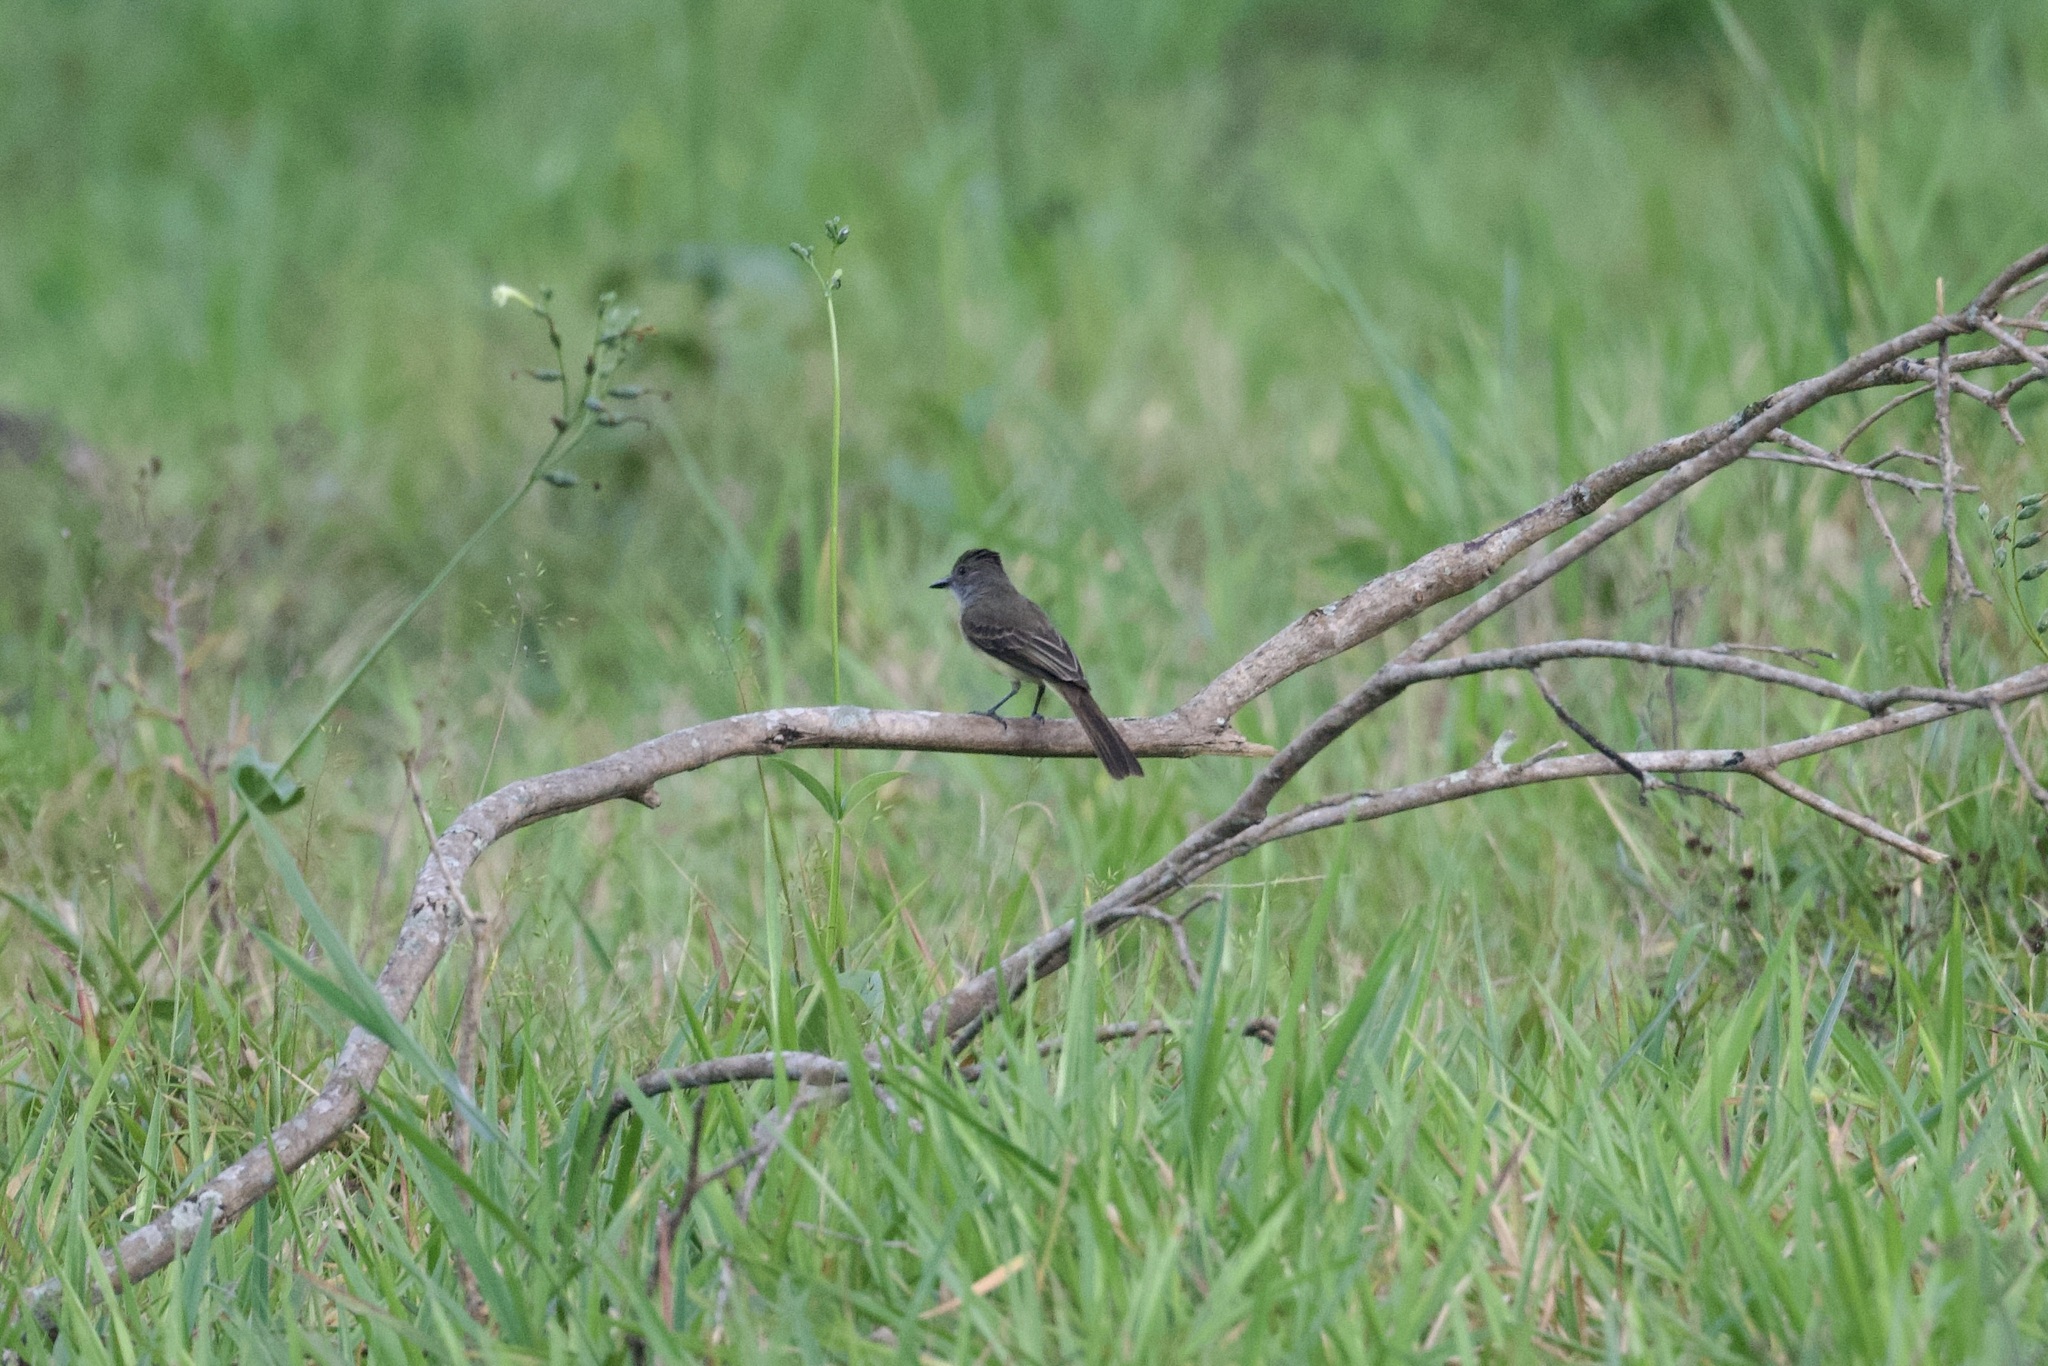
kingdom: Animalia
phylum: Chordata
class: Aves
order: Passeriformes
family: Tyrannidae
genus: Myiarchus
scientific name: Myiarchus ferox
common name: Short-crested flycatcher
